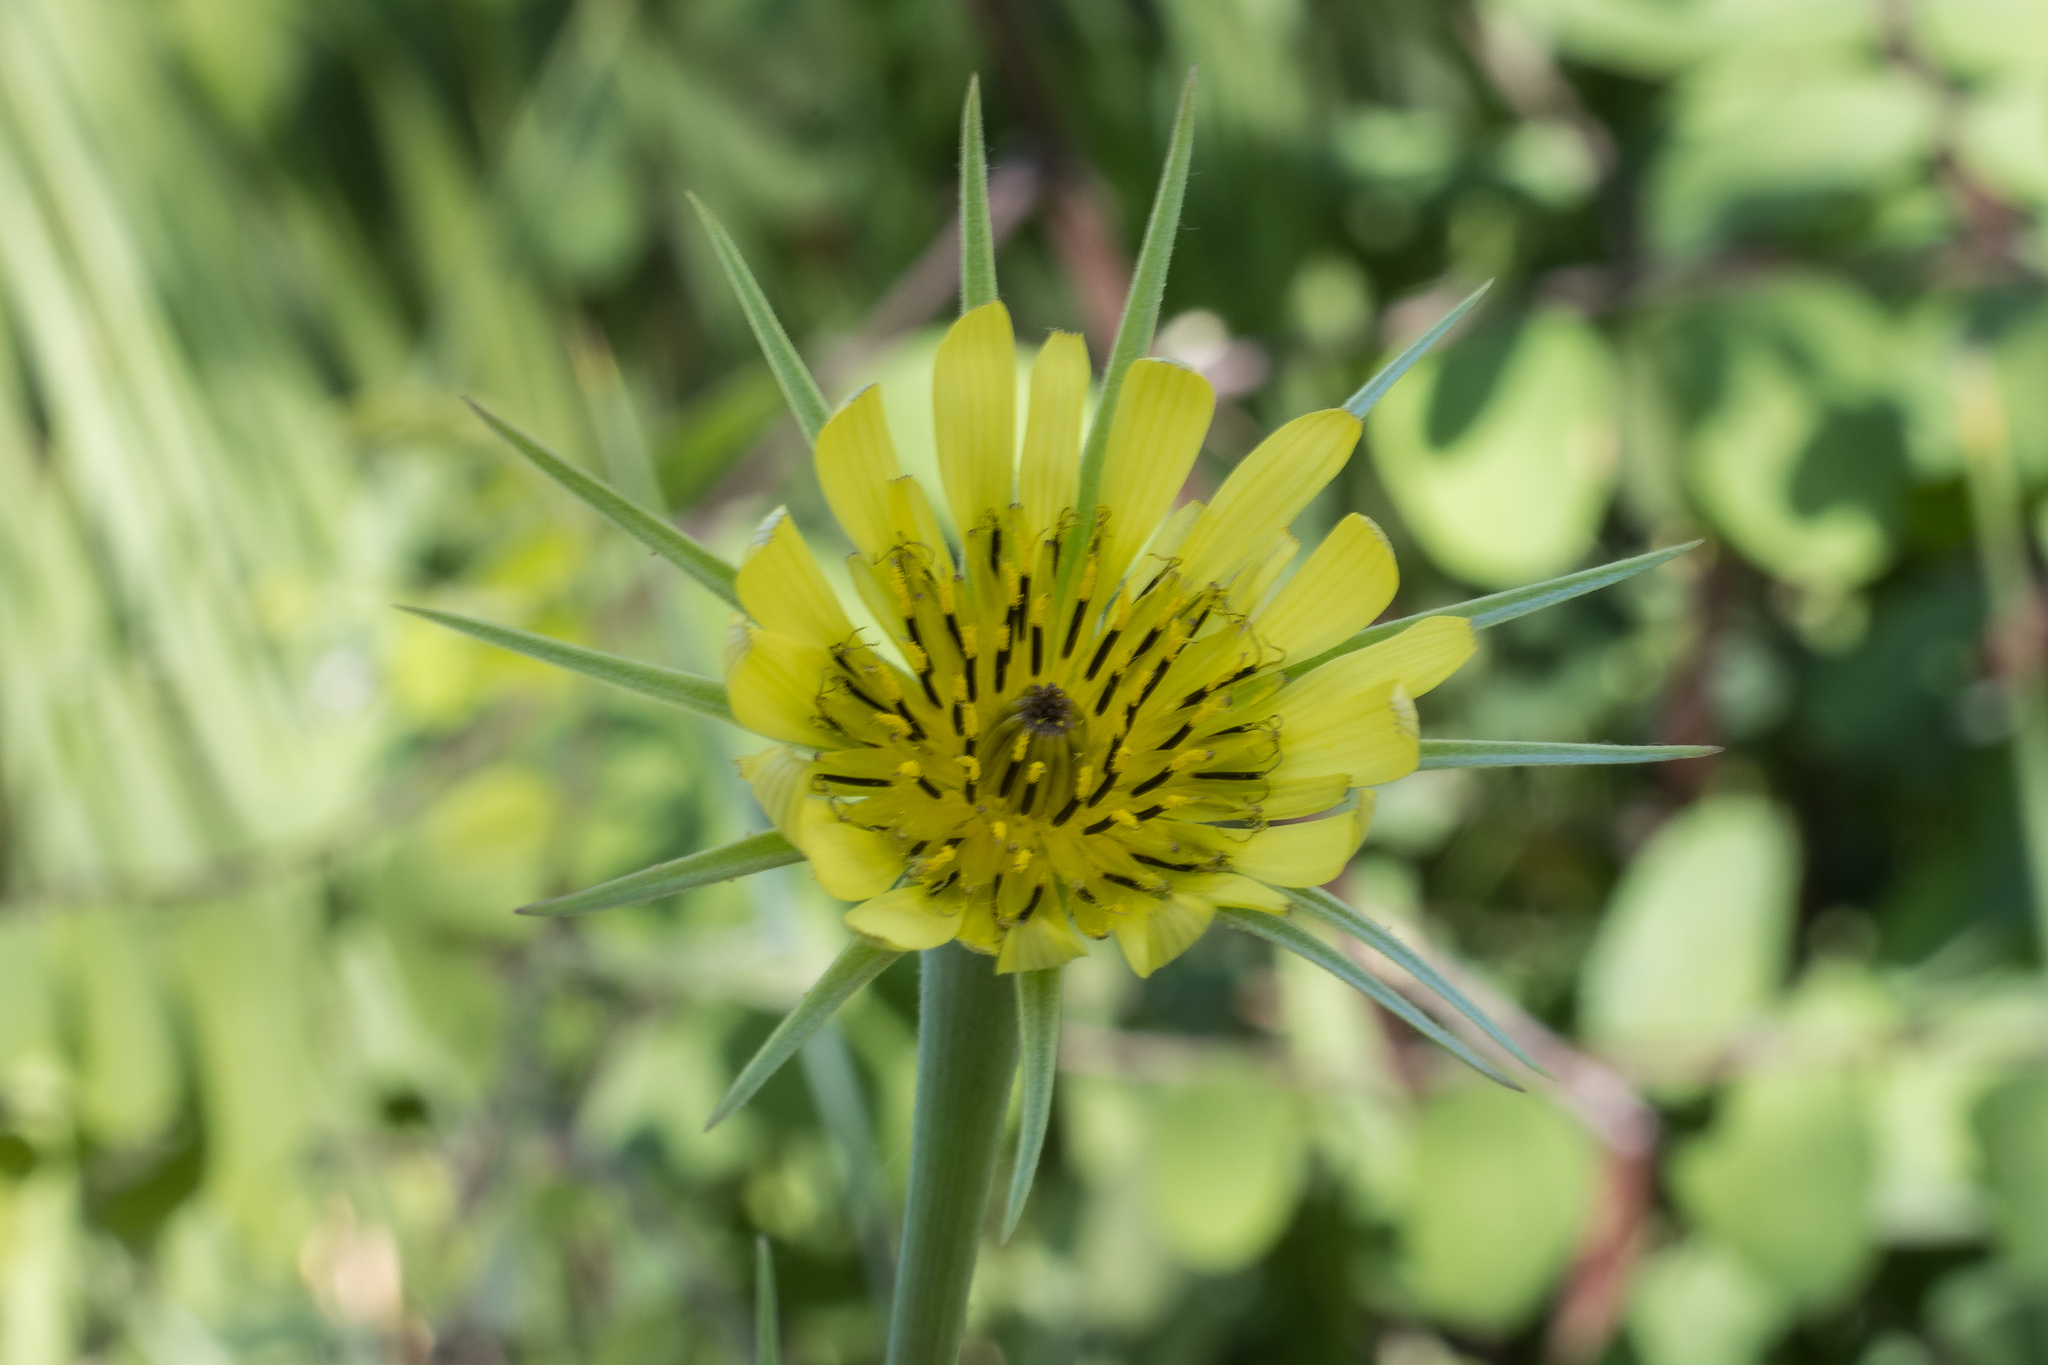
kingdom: Plantae
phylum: Tracheophyta
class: Magnoliopsida
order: Asterales
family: Asteraceae
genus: Tragopogon
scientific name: Tragopogon dubius
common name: Yellow salsify
